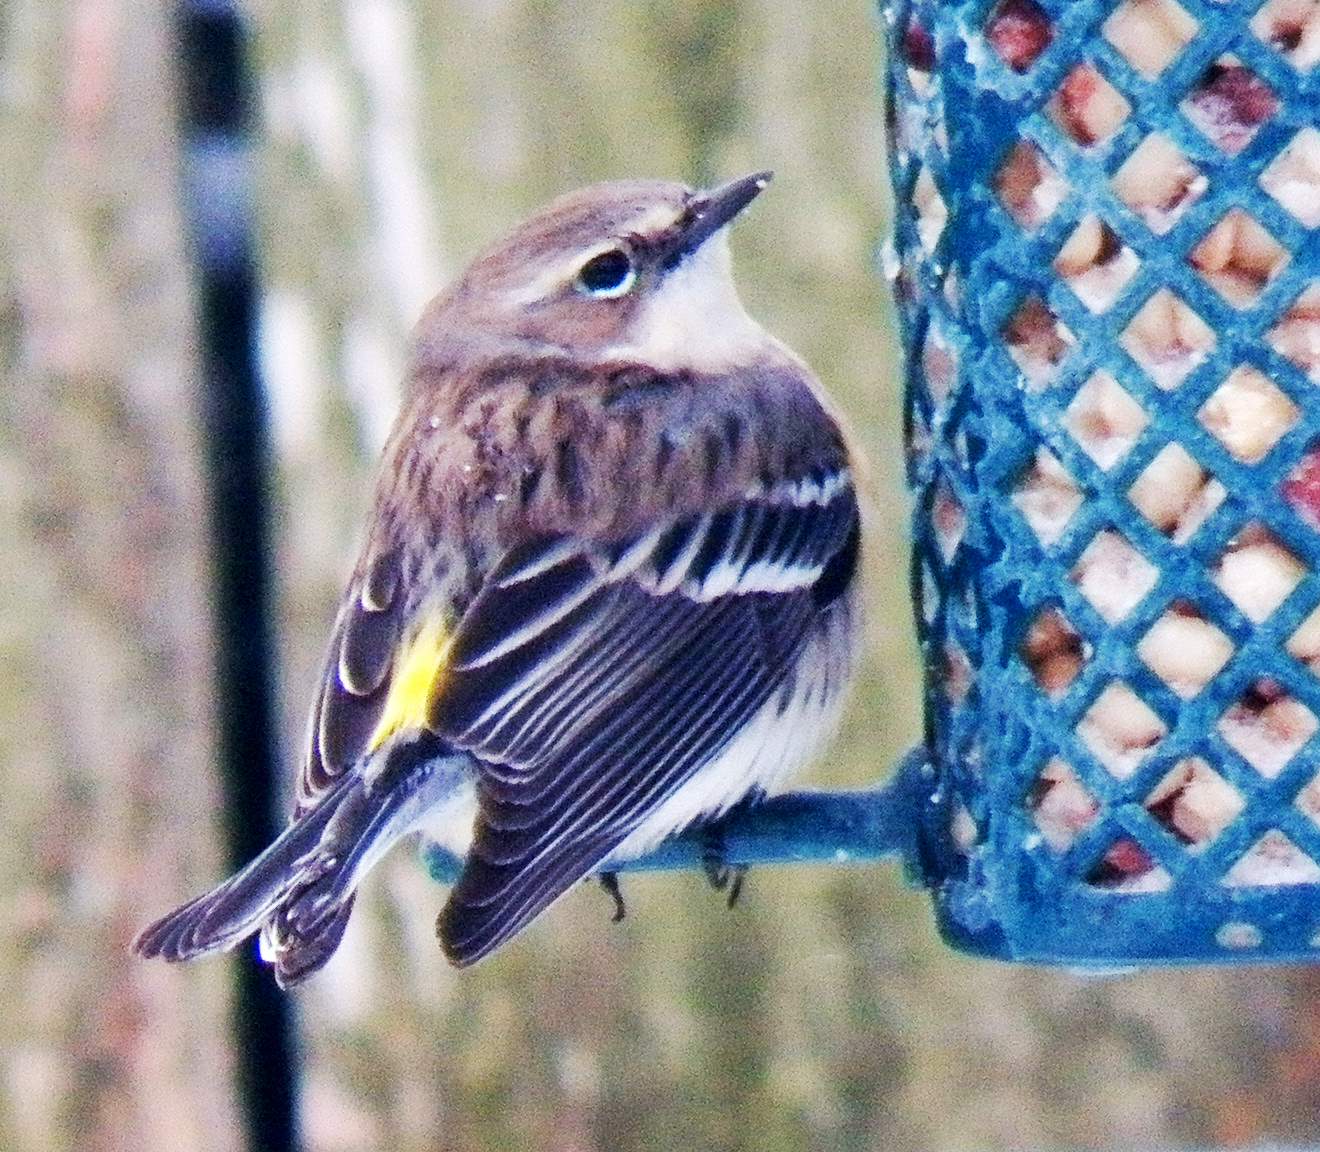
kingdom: Animalia
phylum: Chordata
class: Aves
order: Passeriformes
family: Parulidae
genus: Setophaga
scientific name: Setophaga coronata
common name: Myrtle warbler
